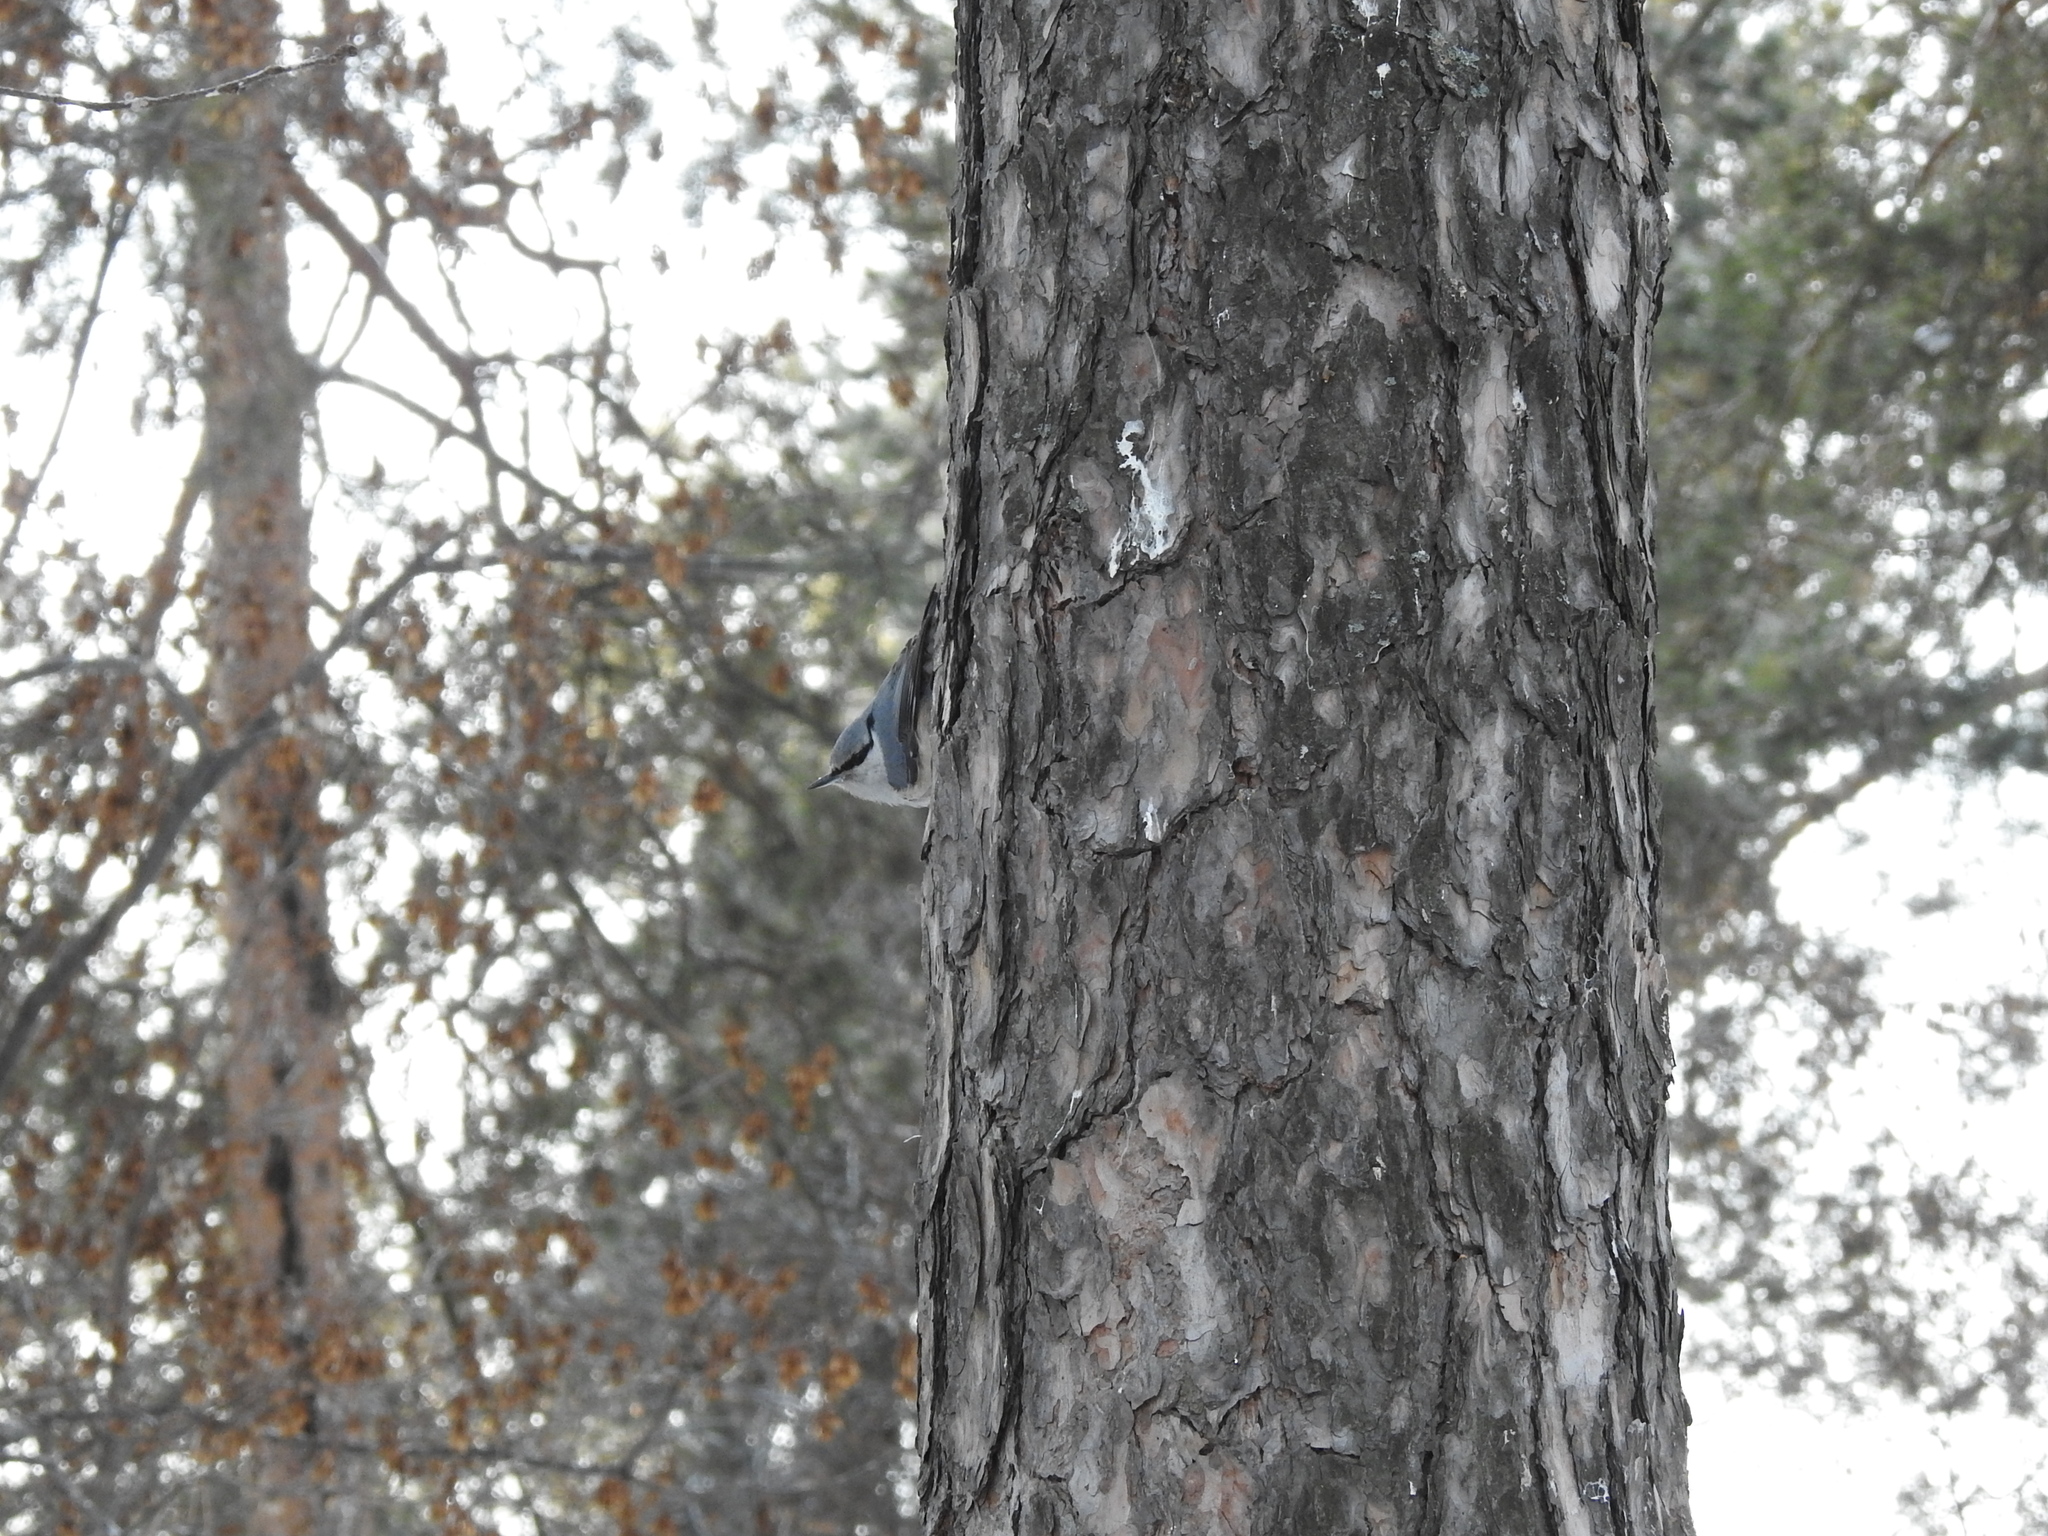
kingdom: Animalia
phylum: Chordata
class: Aves
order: Passeriformes
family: Sittidae
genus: Sitta
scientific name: Sitta europaea
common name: Eurasian nuthatch
